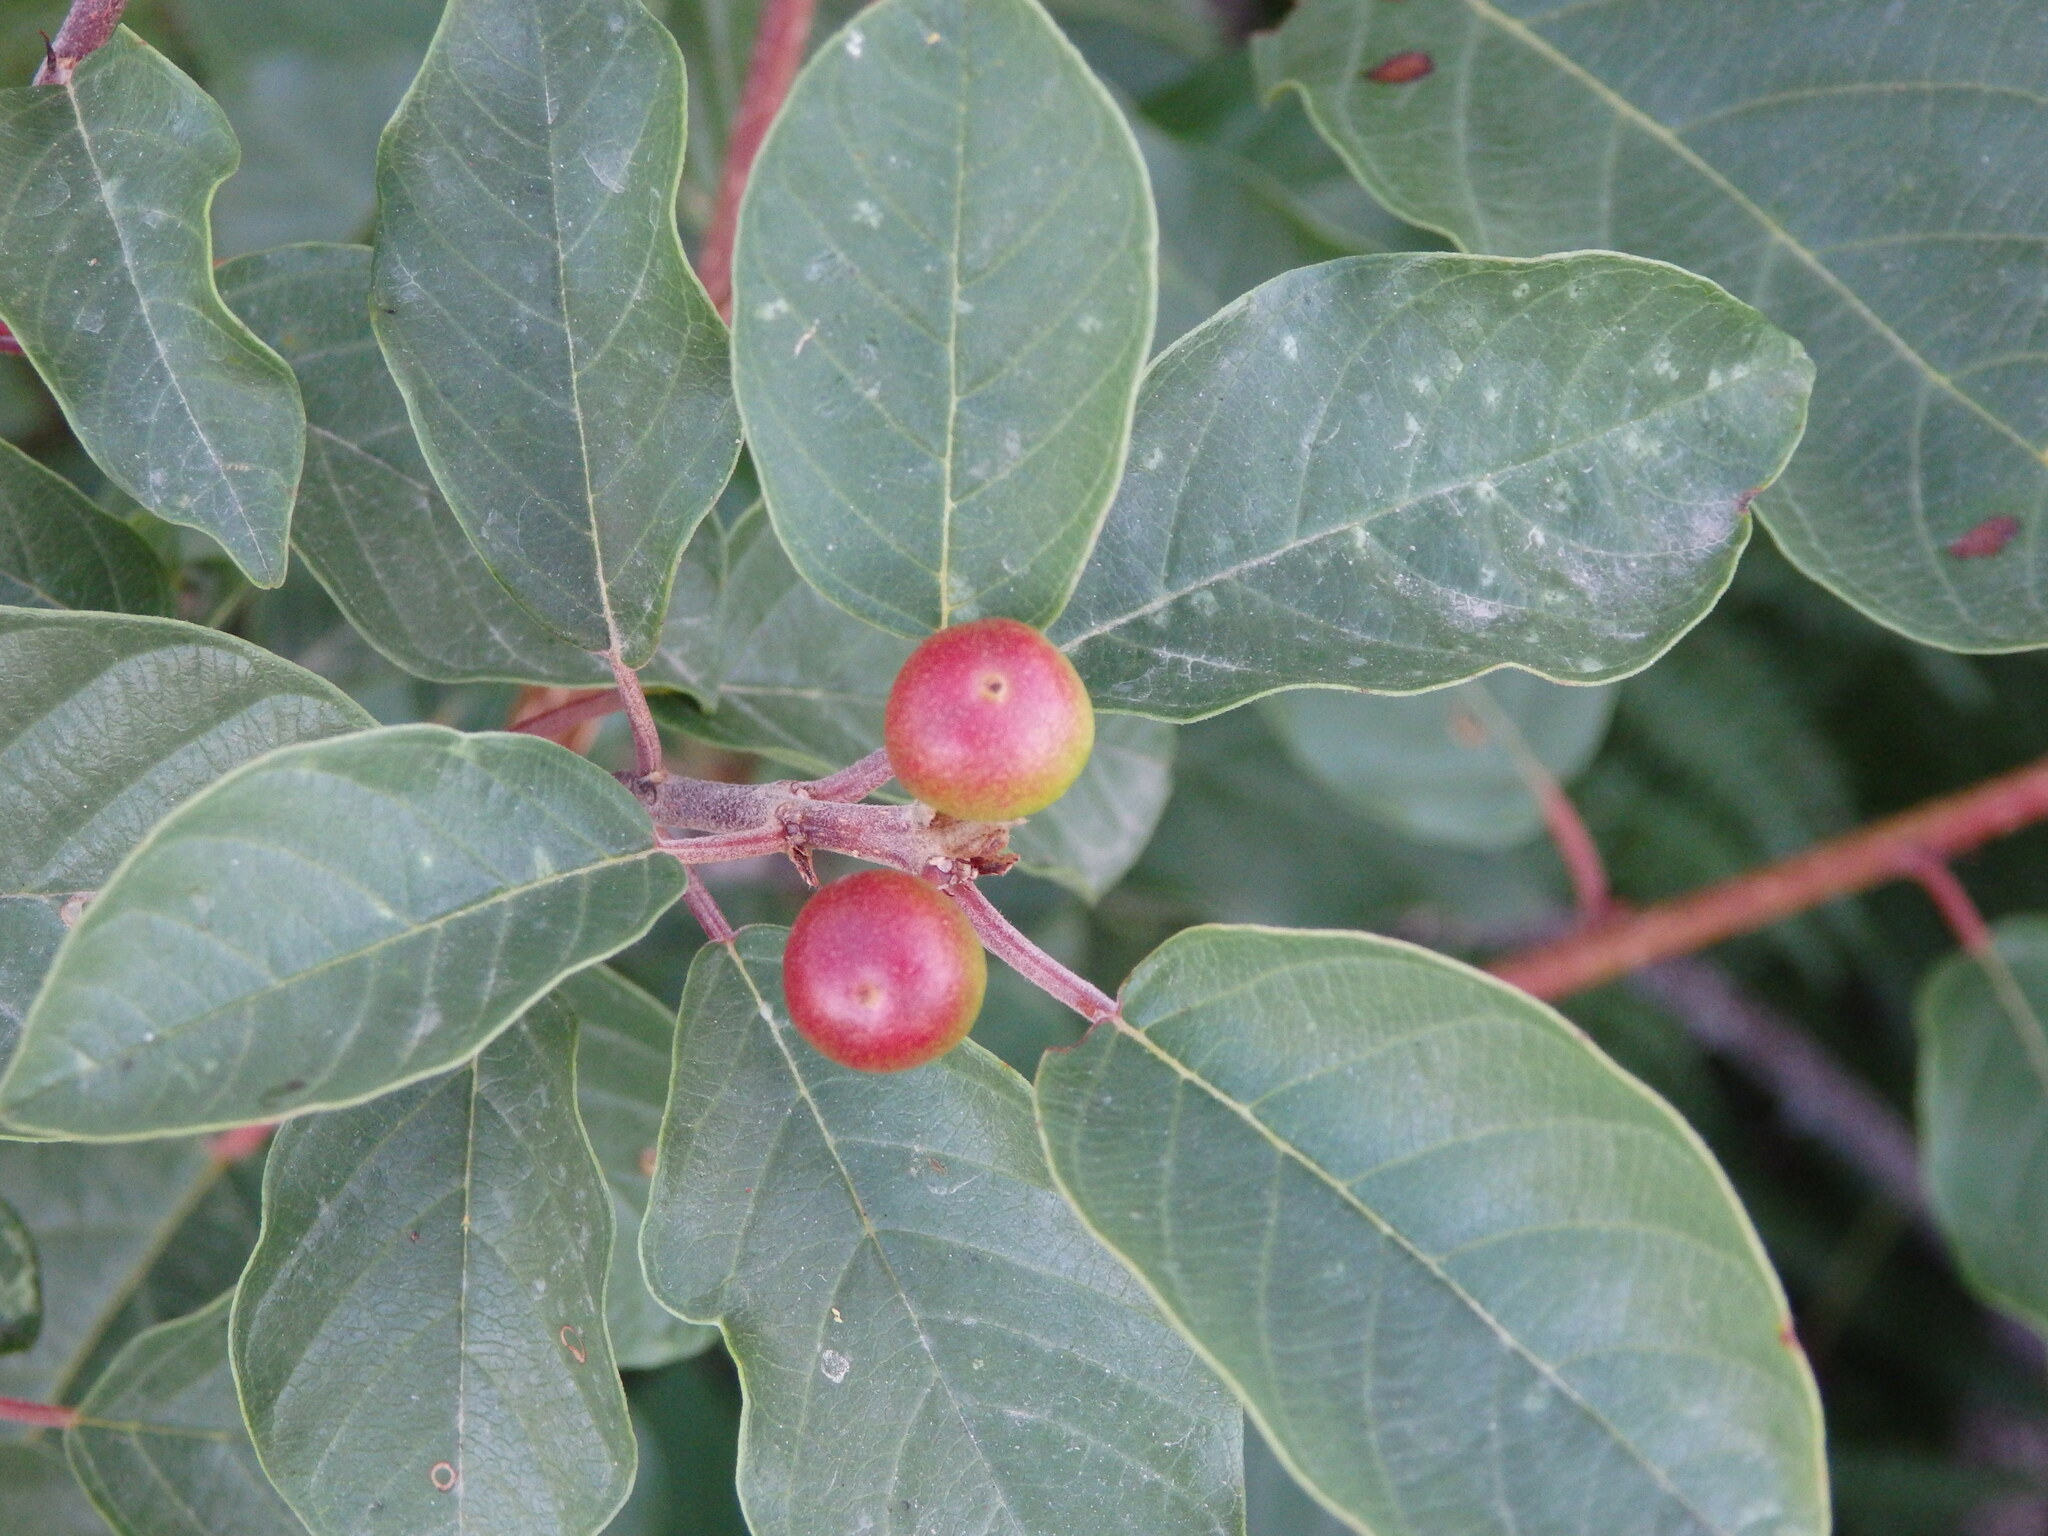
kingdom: Plantae
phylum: Tracheophyta
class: Magnoliopsida
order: Rosales
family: Rhamnaceae
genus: Frangula
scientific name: Frangula alnus
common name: Alder buckthorn
